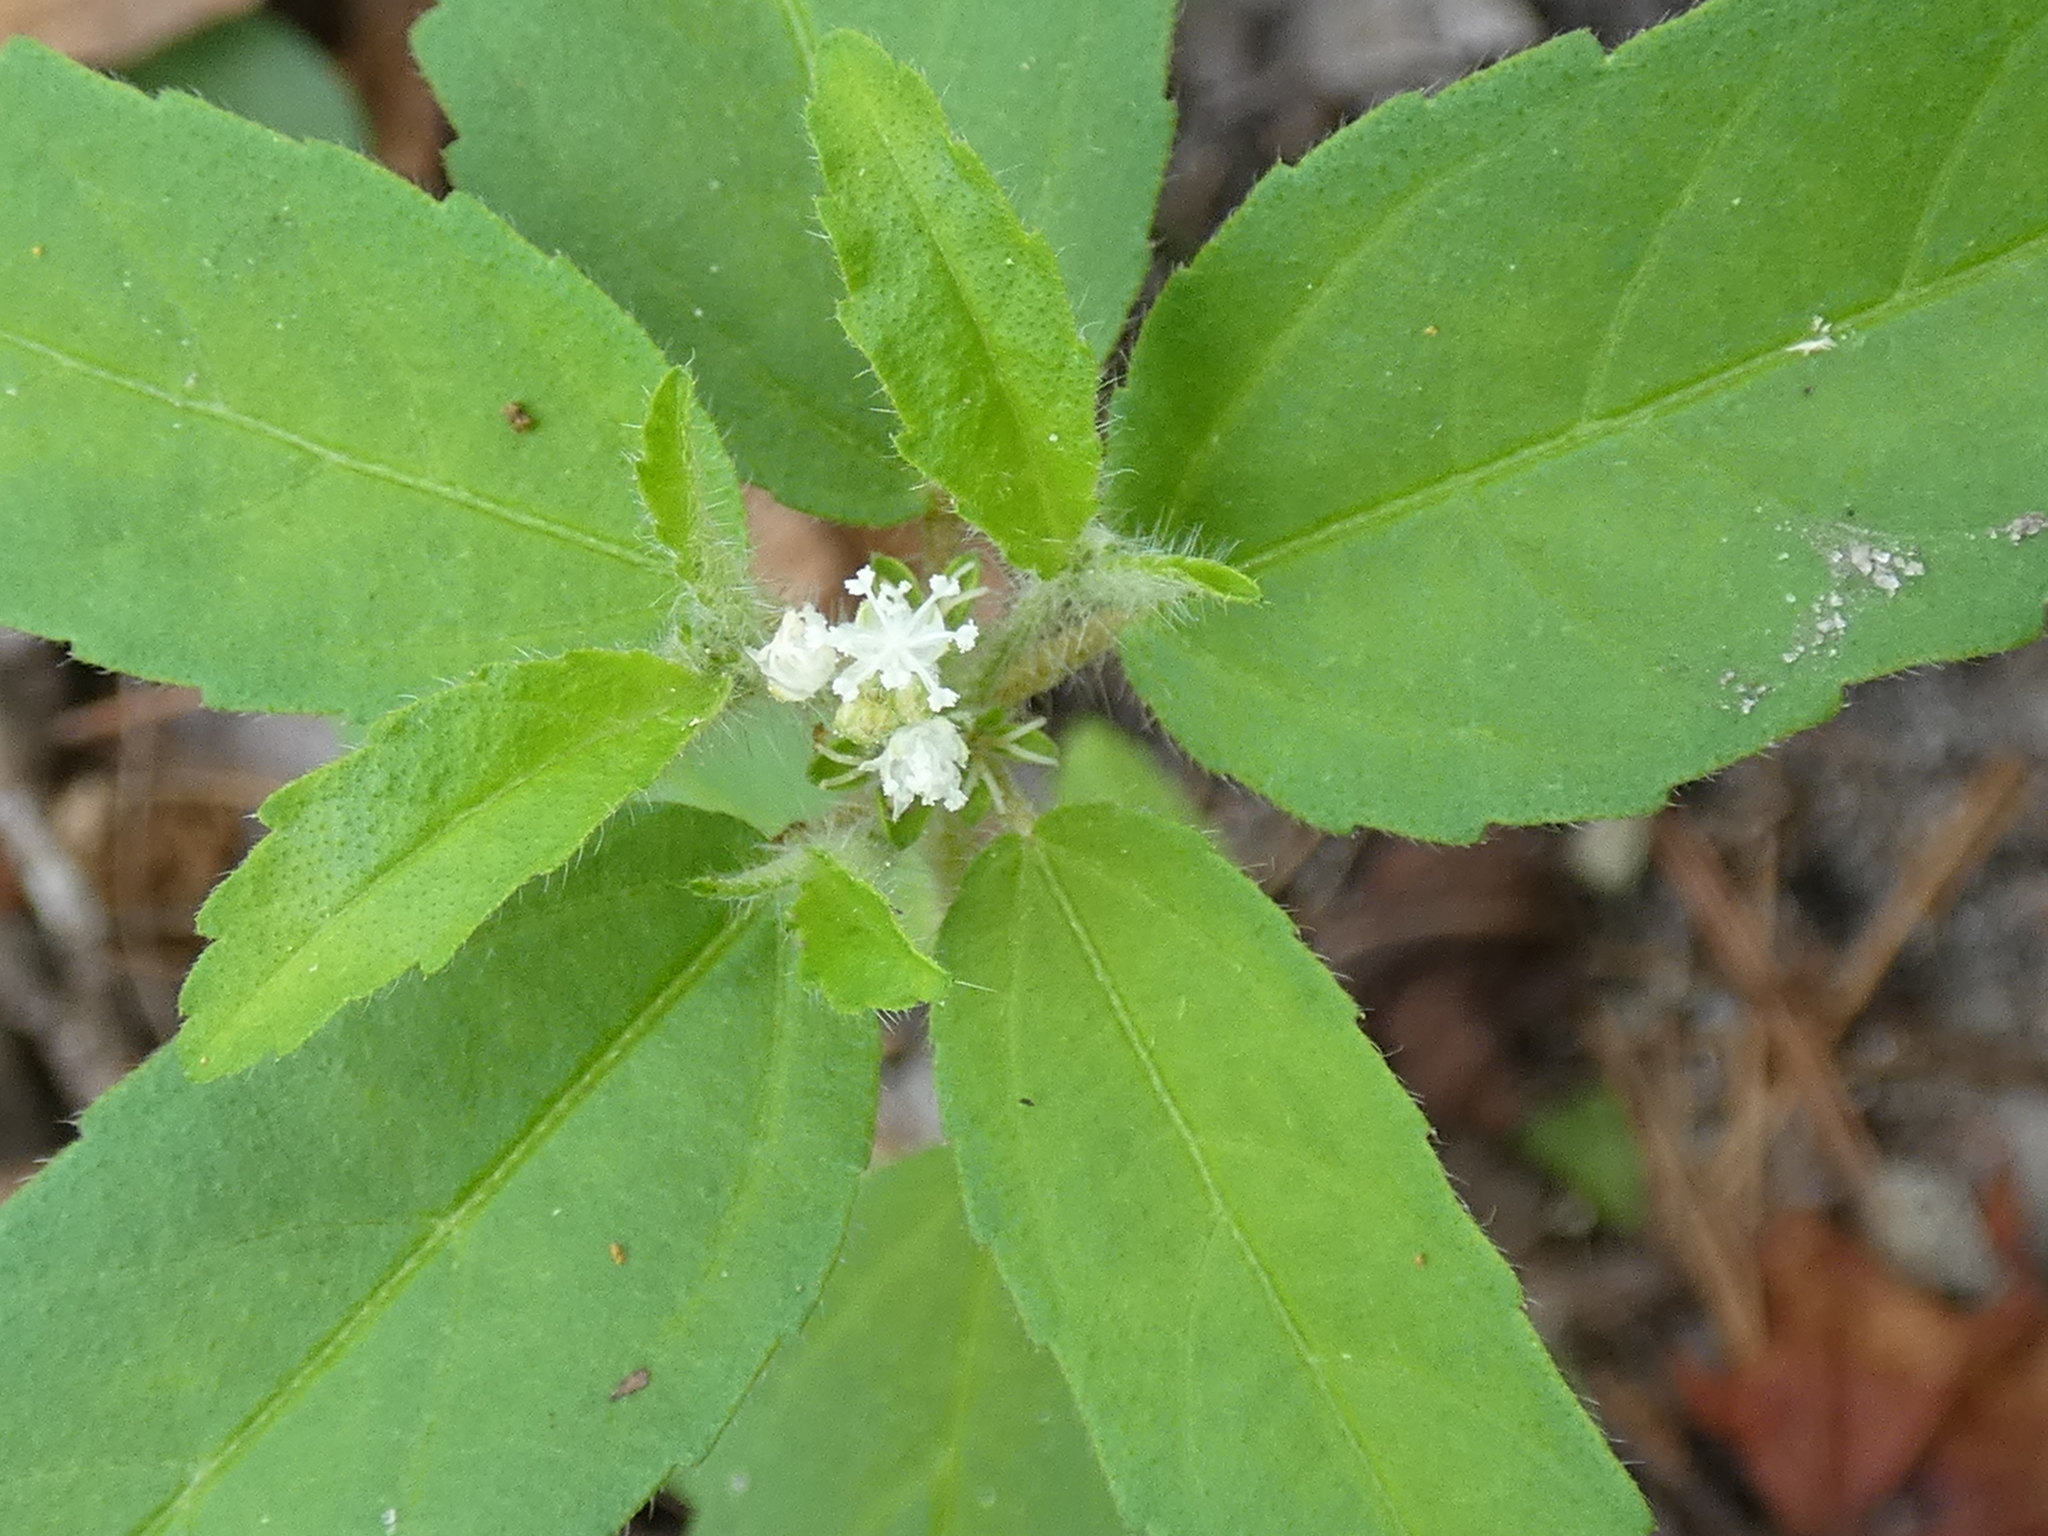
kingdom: Plantae
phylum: Tracheophyta
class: Magnoliopsida
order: Malpighiales
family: Euphorbiaceae
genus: Croton
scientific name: Croton glandulosus
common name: Tropic croton
